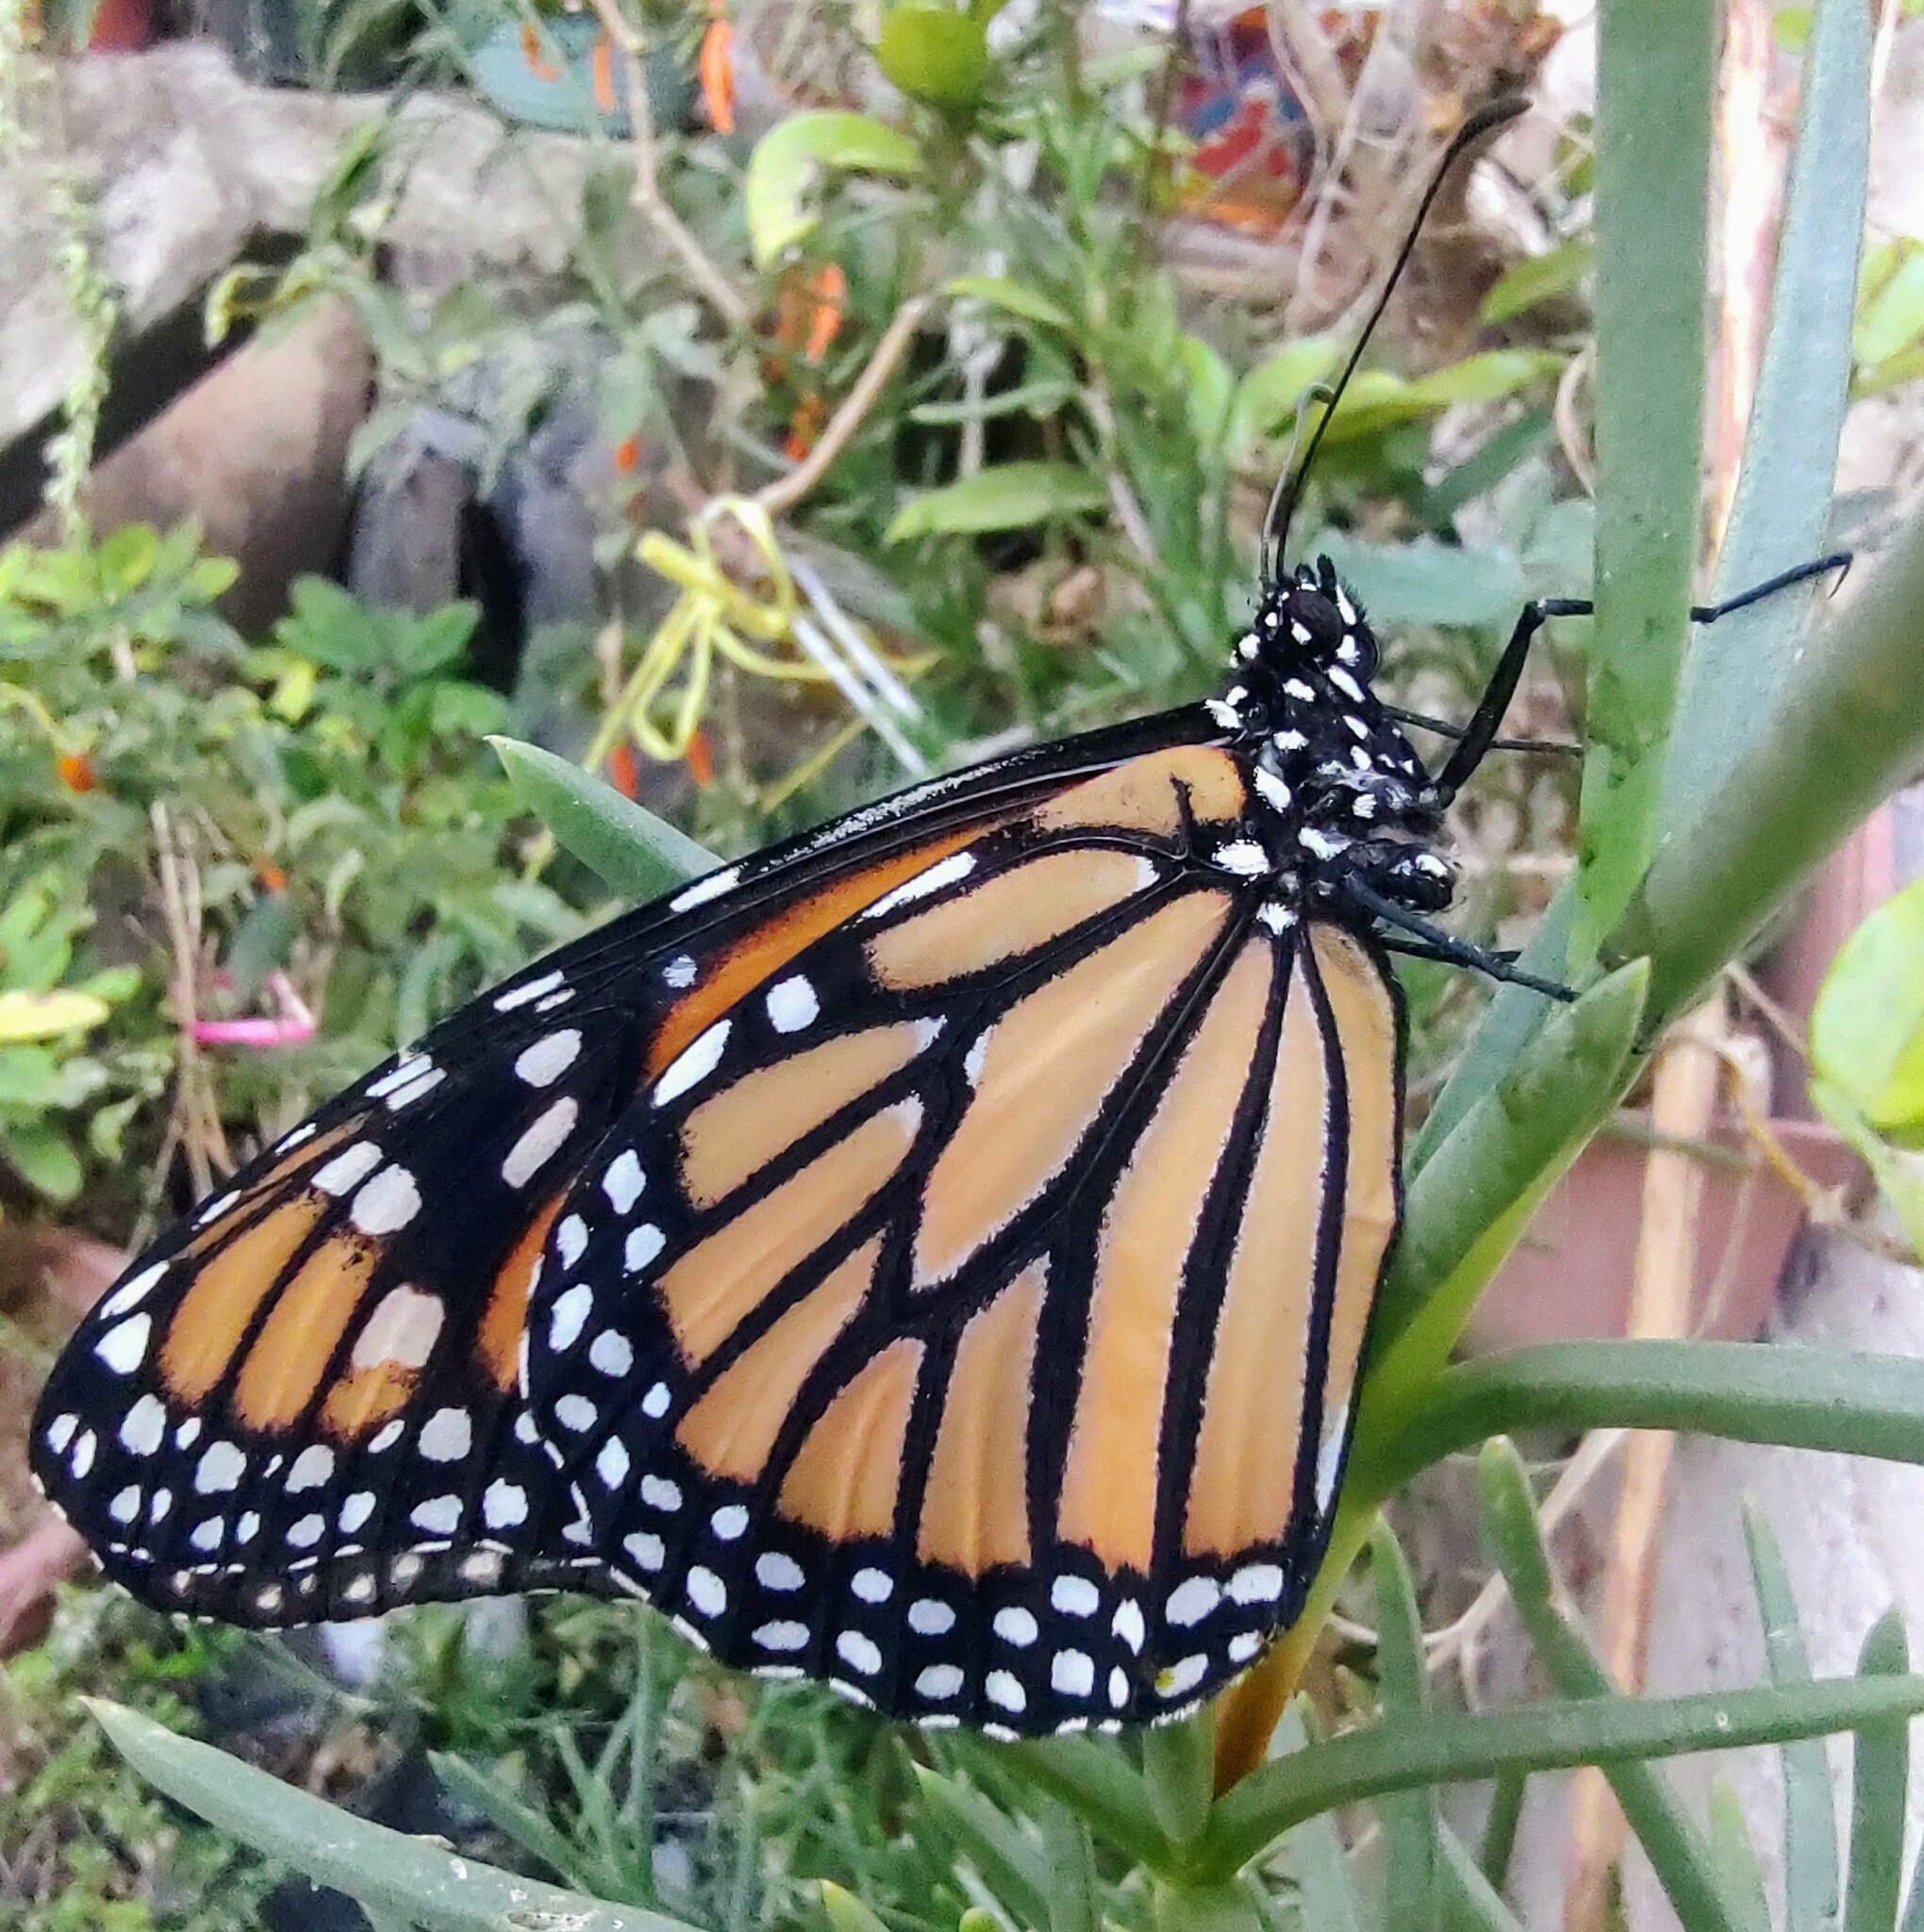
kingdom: Animalia
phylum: Arthropoda
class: Insecta
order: Lepidoptera
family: Nymphalidae
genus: Danaus
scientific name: Danaus plexippus
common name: Monarch
